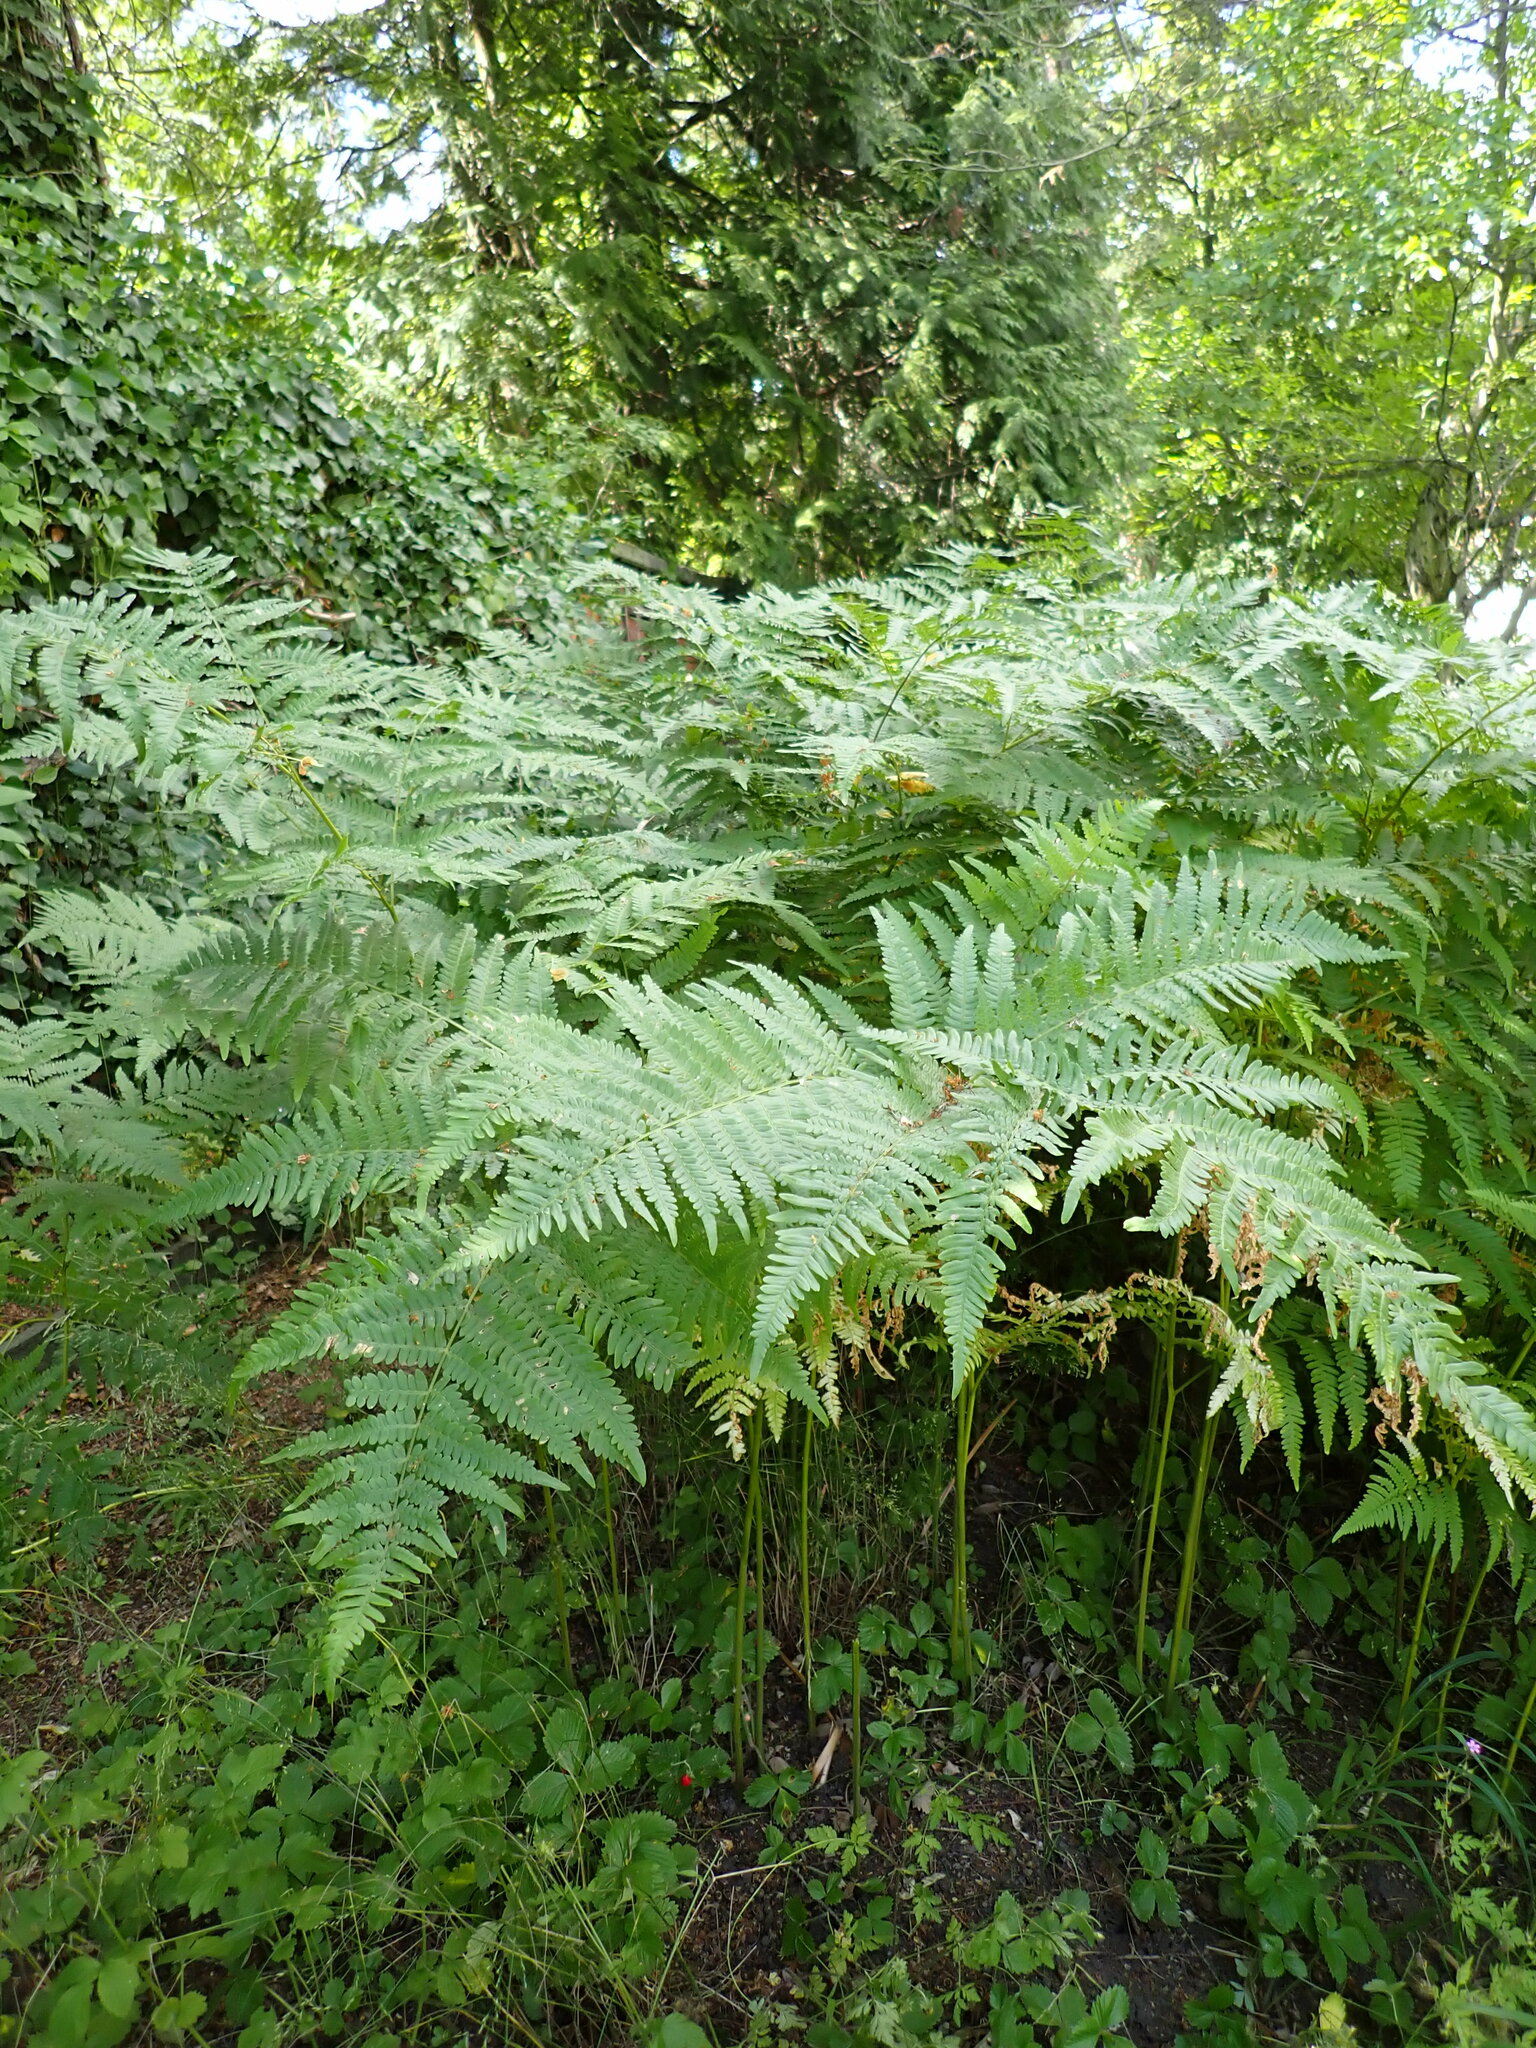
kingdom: Plantae
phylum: Tracheophyta
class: Polypodiopsida
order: Polypodiales
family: Dennstaedtiaceae
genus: Pteridium
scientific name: Pteridium aquilinum
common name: Bracken
